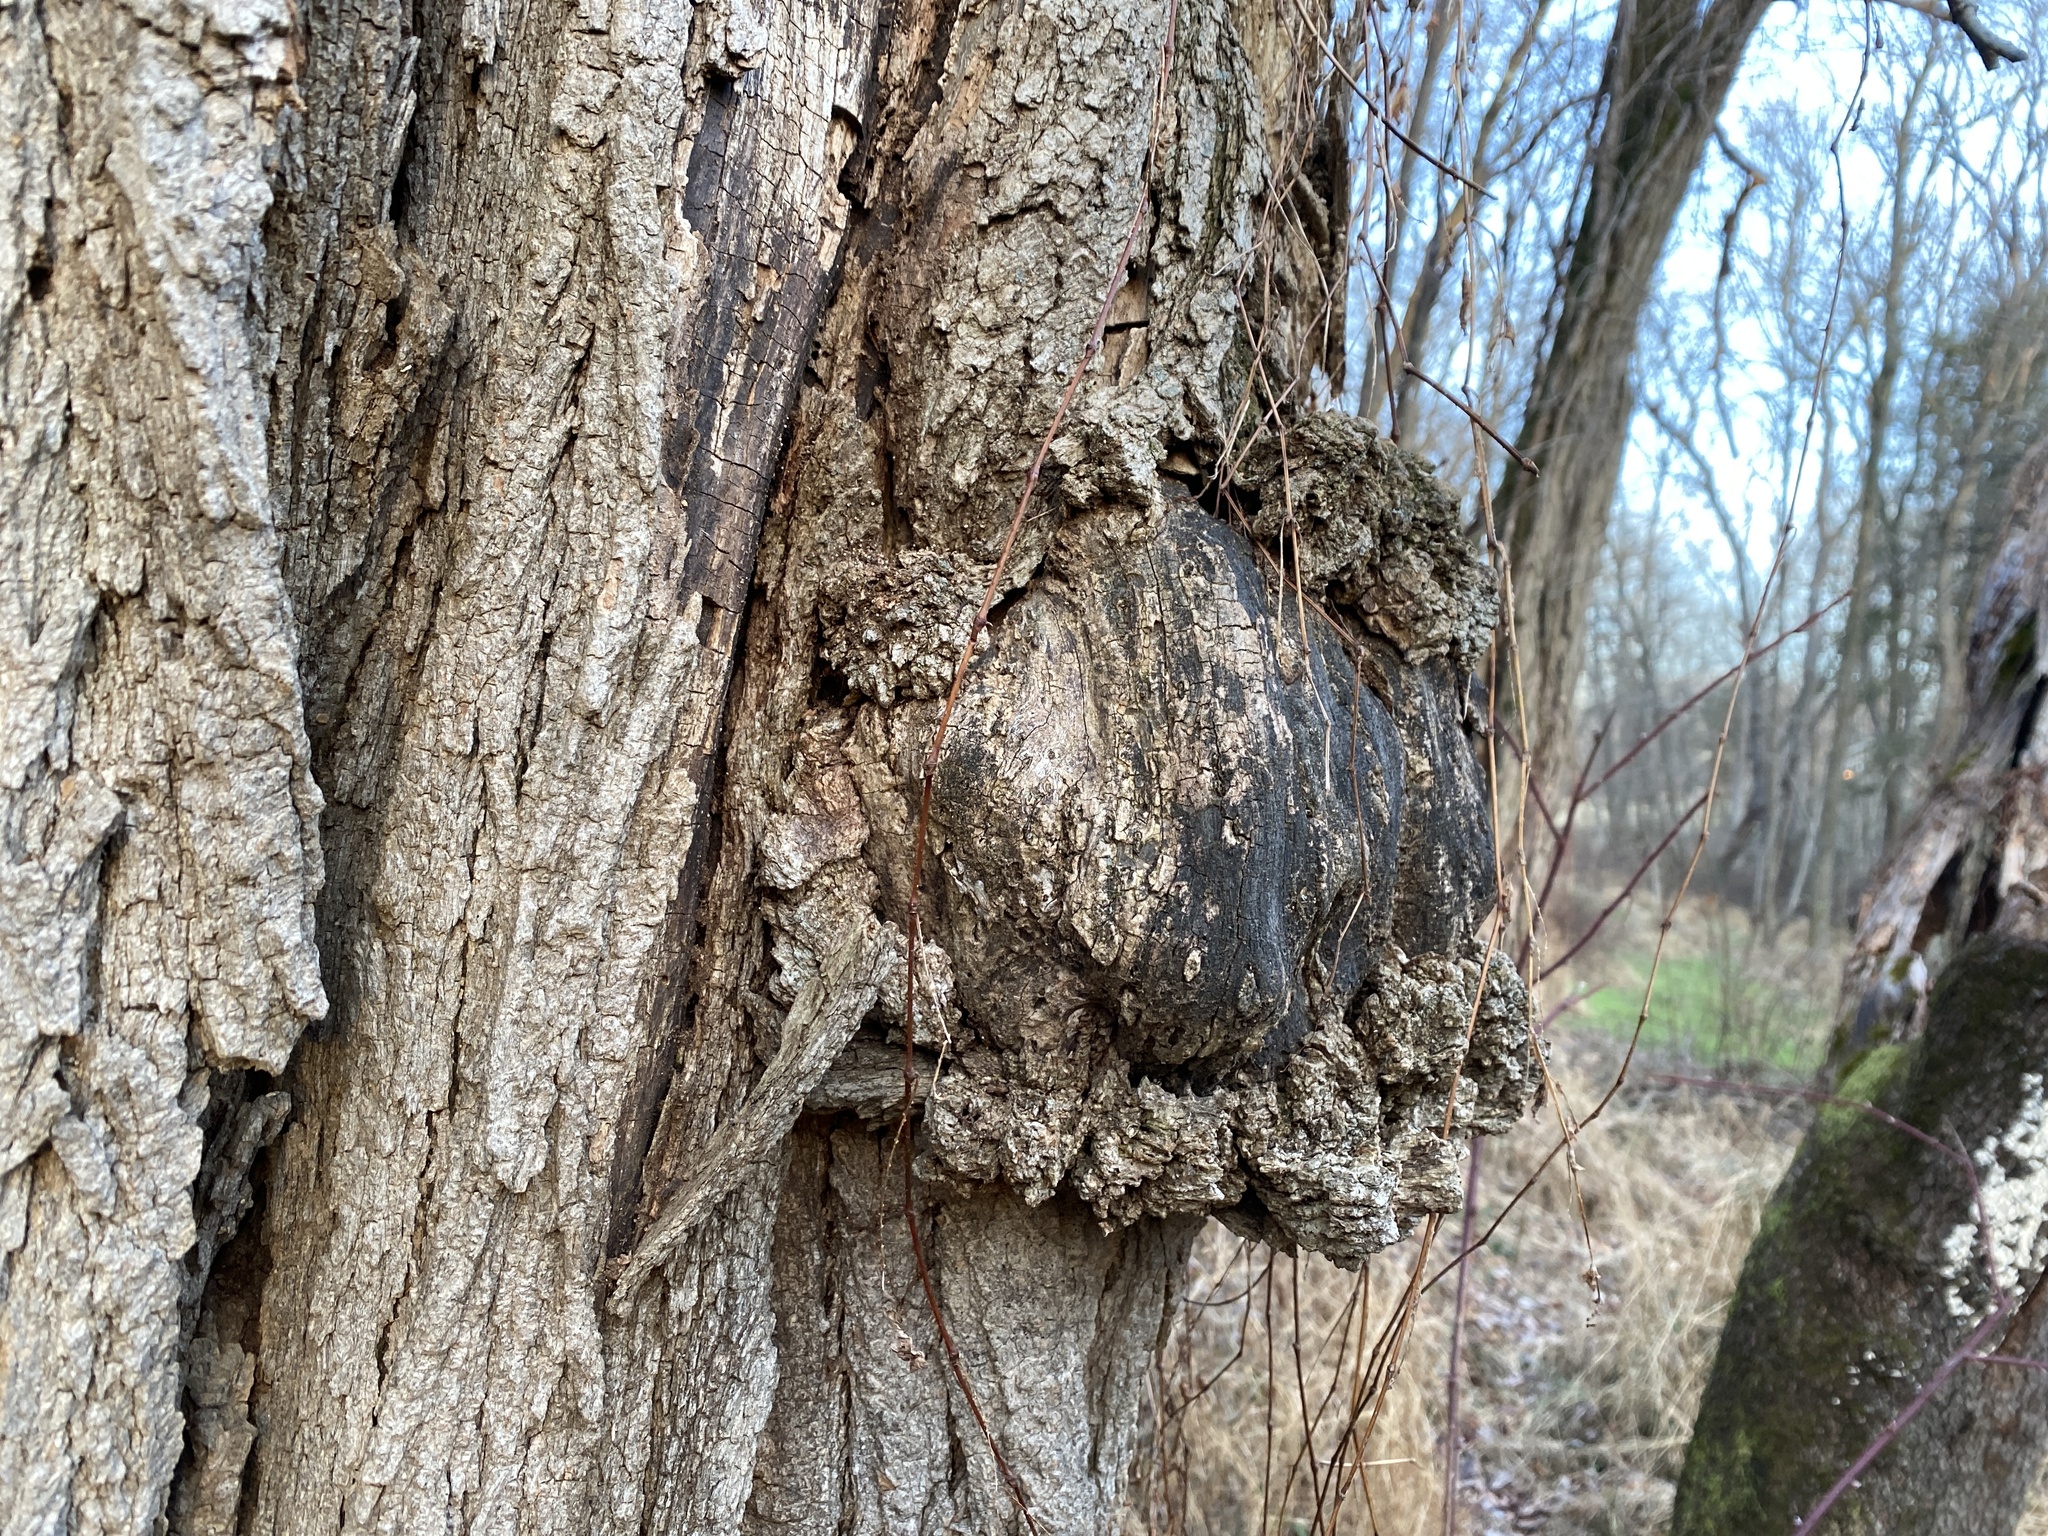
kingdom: Bacteria
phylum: Proteobacteria
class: Alphaproteobacteria
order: Rhizobiales
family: Rhizobiaceae
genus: Rhizobium
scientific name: Rhizobium Agrobacterium radiobacter
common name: Bacterial crown gall
